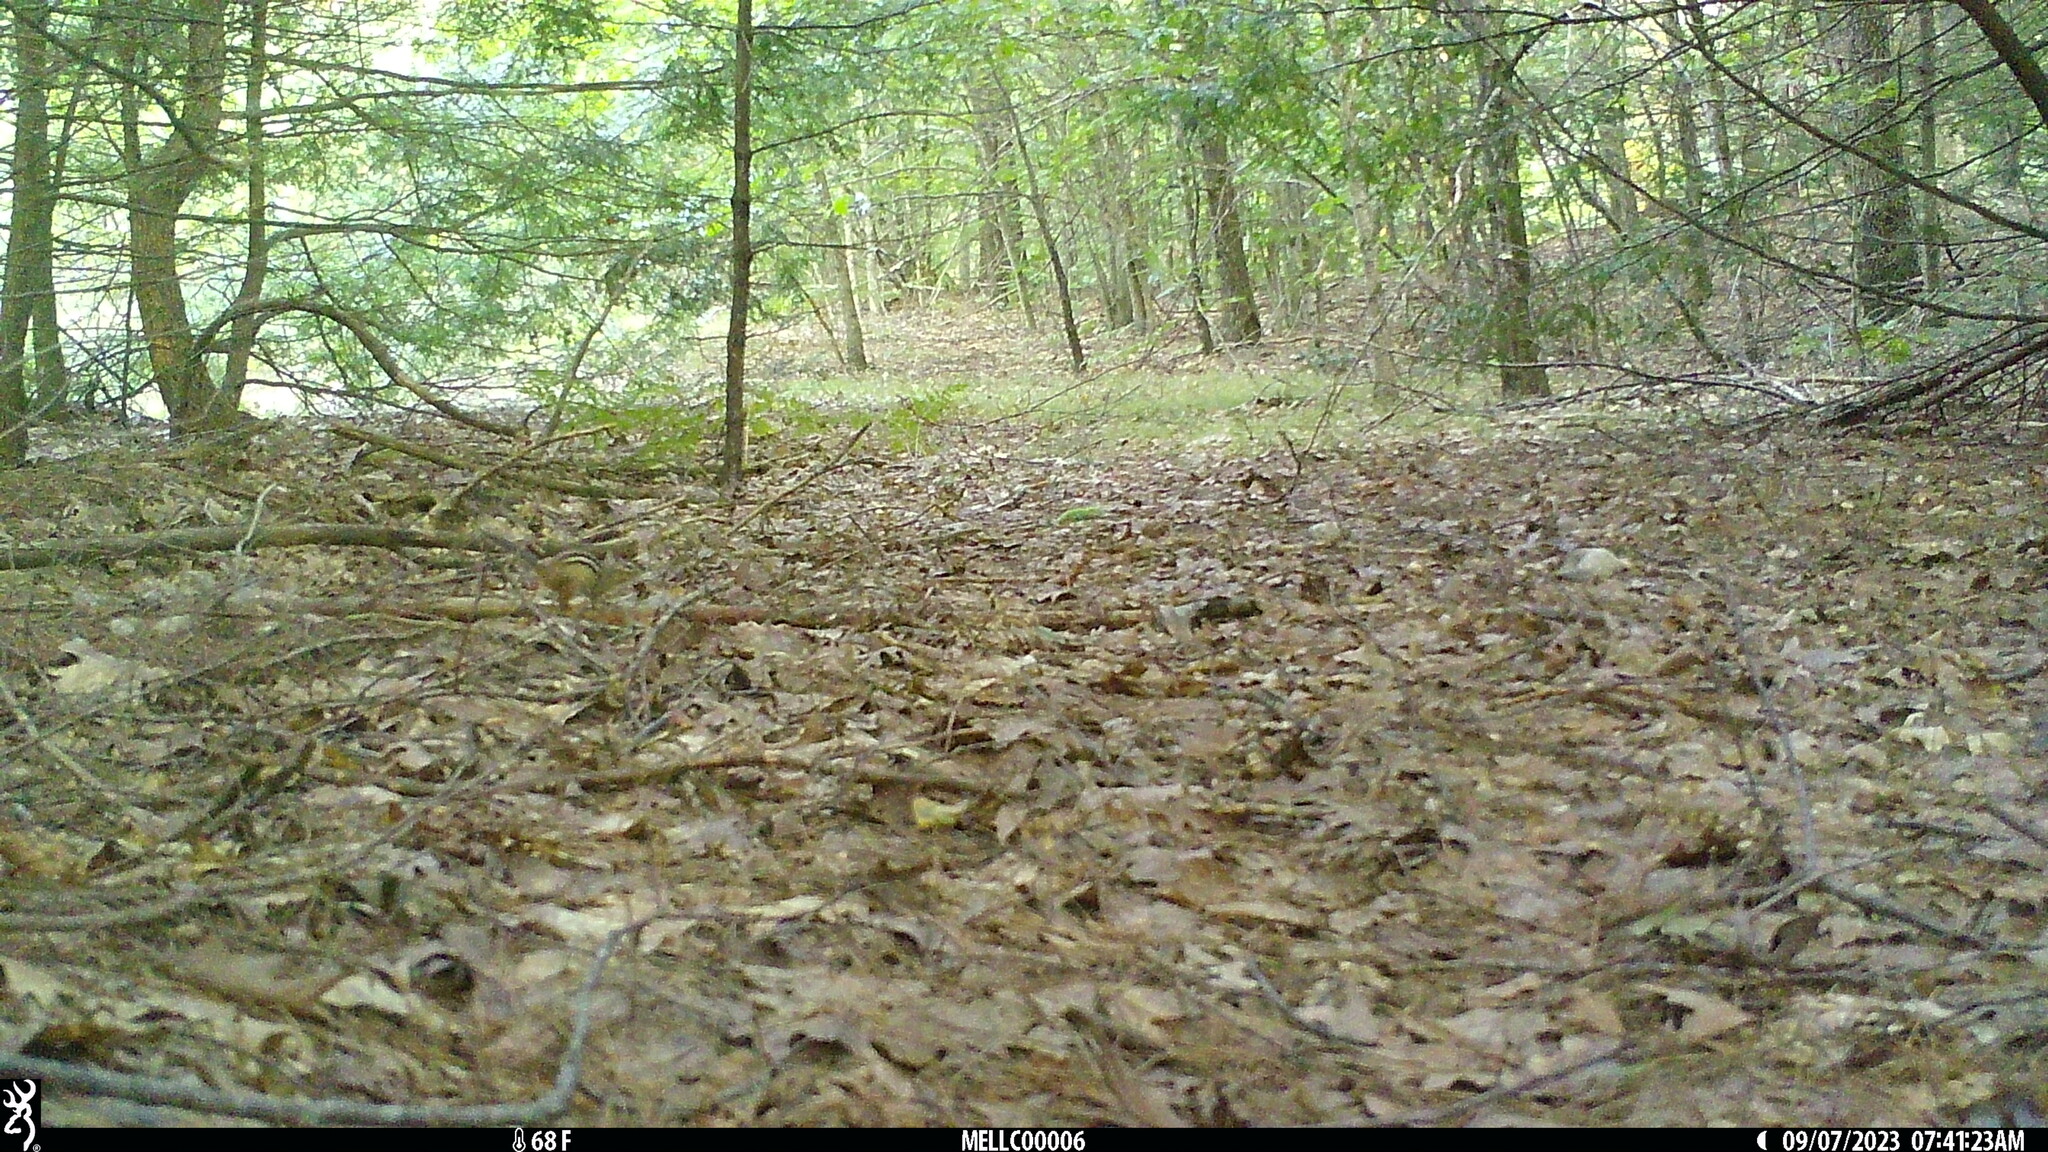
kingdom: Animalia
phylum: Chordata
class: Mammalia
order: Rodentia
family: Sciuridae
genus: Tamias
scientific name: Tamias striatus
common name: Eastern chipmunk
